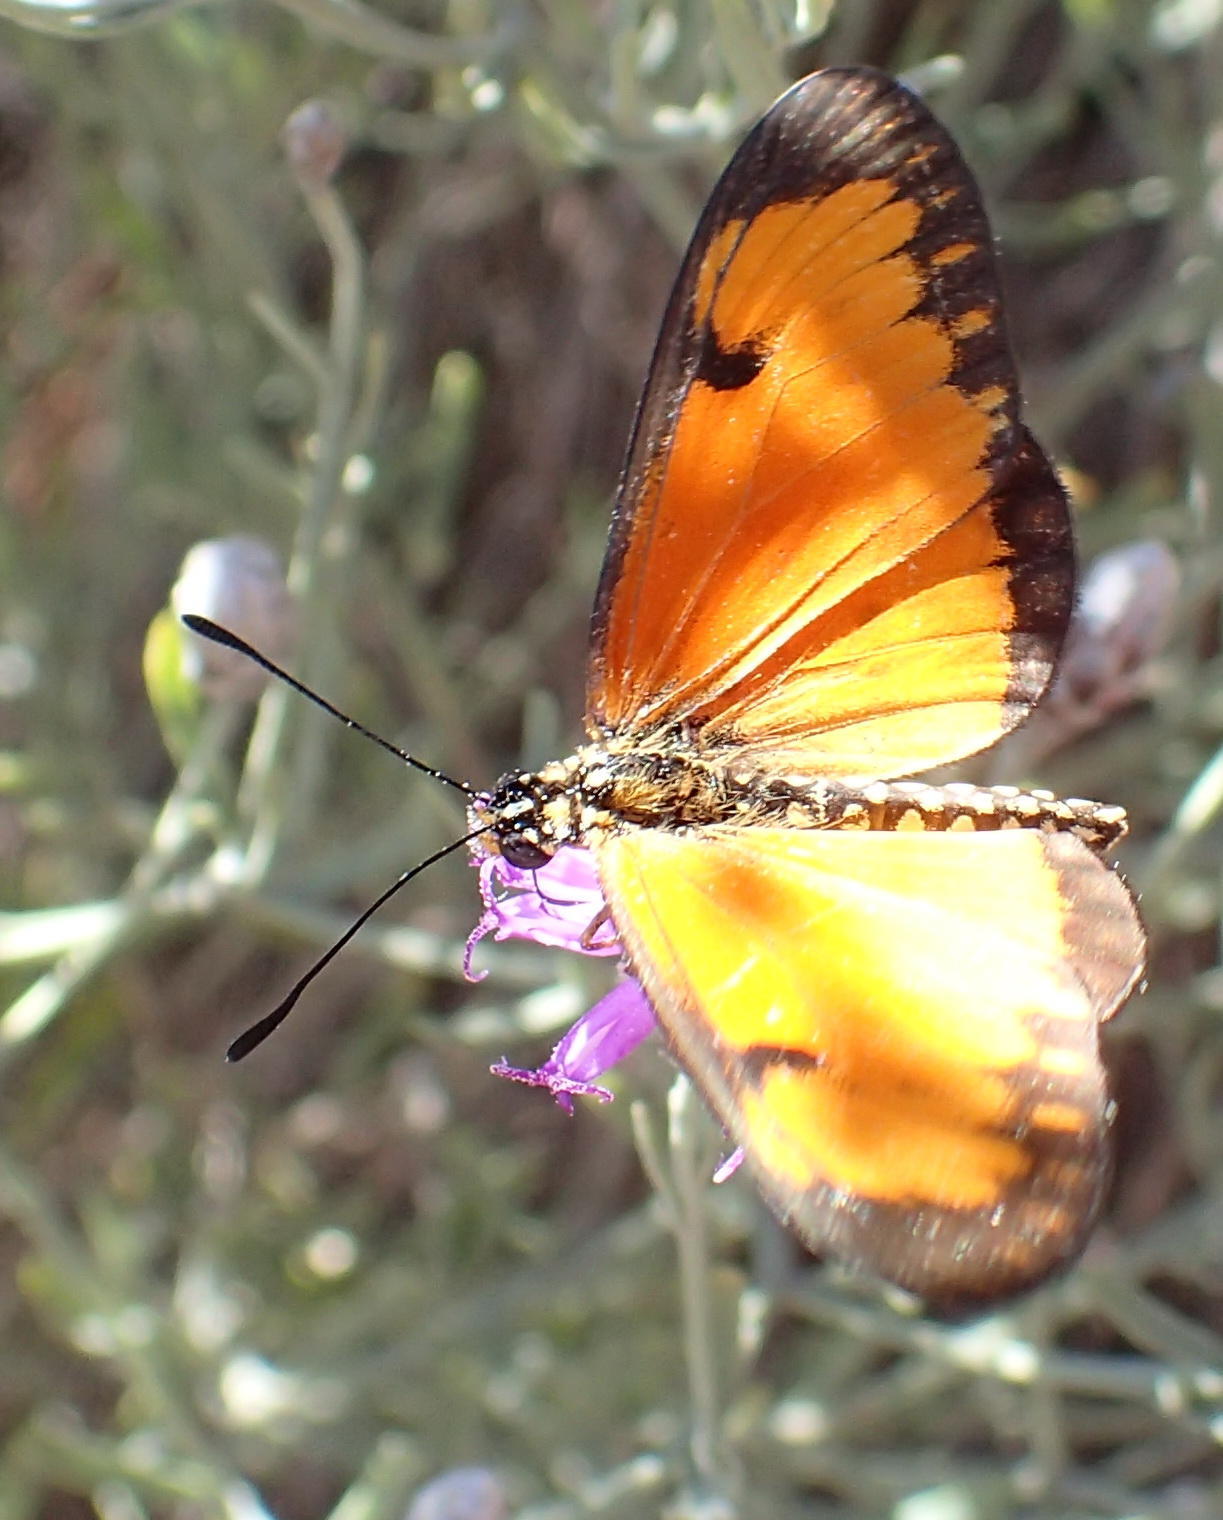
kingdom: Animalia
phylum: Arthropoda
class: Insecta
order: Lepidoptera
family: Nymphalidae
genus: Acraea
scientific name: Acraea Telchinia serena
